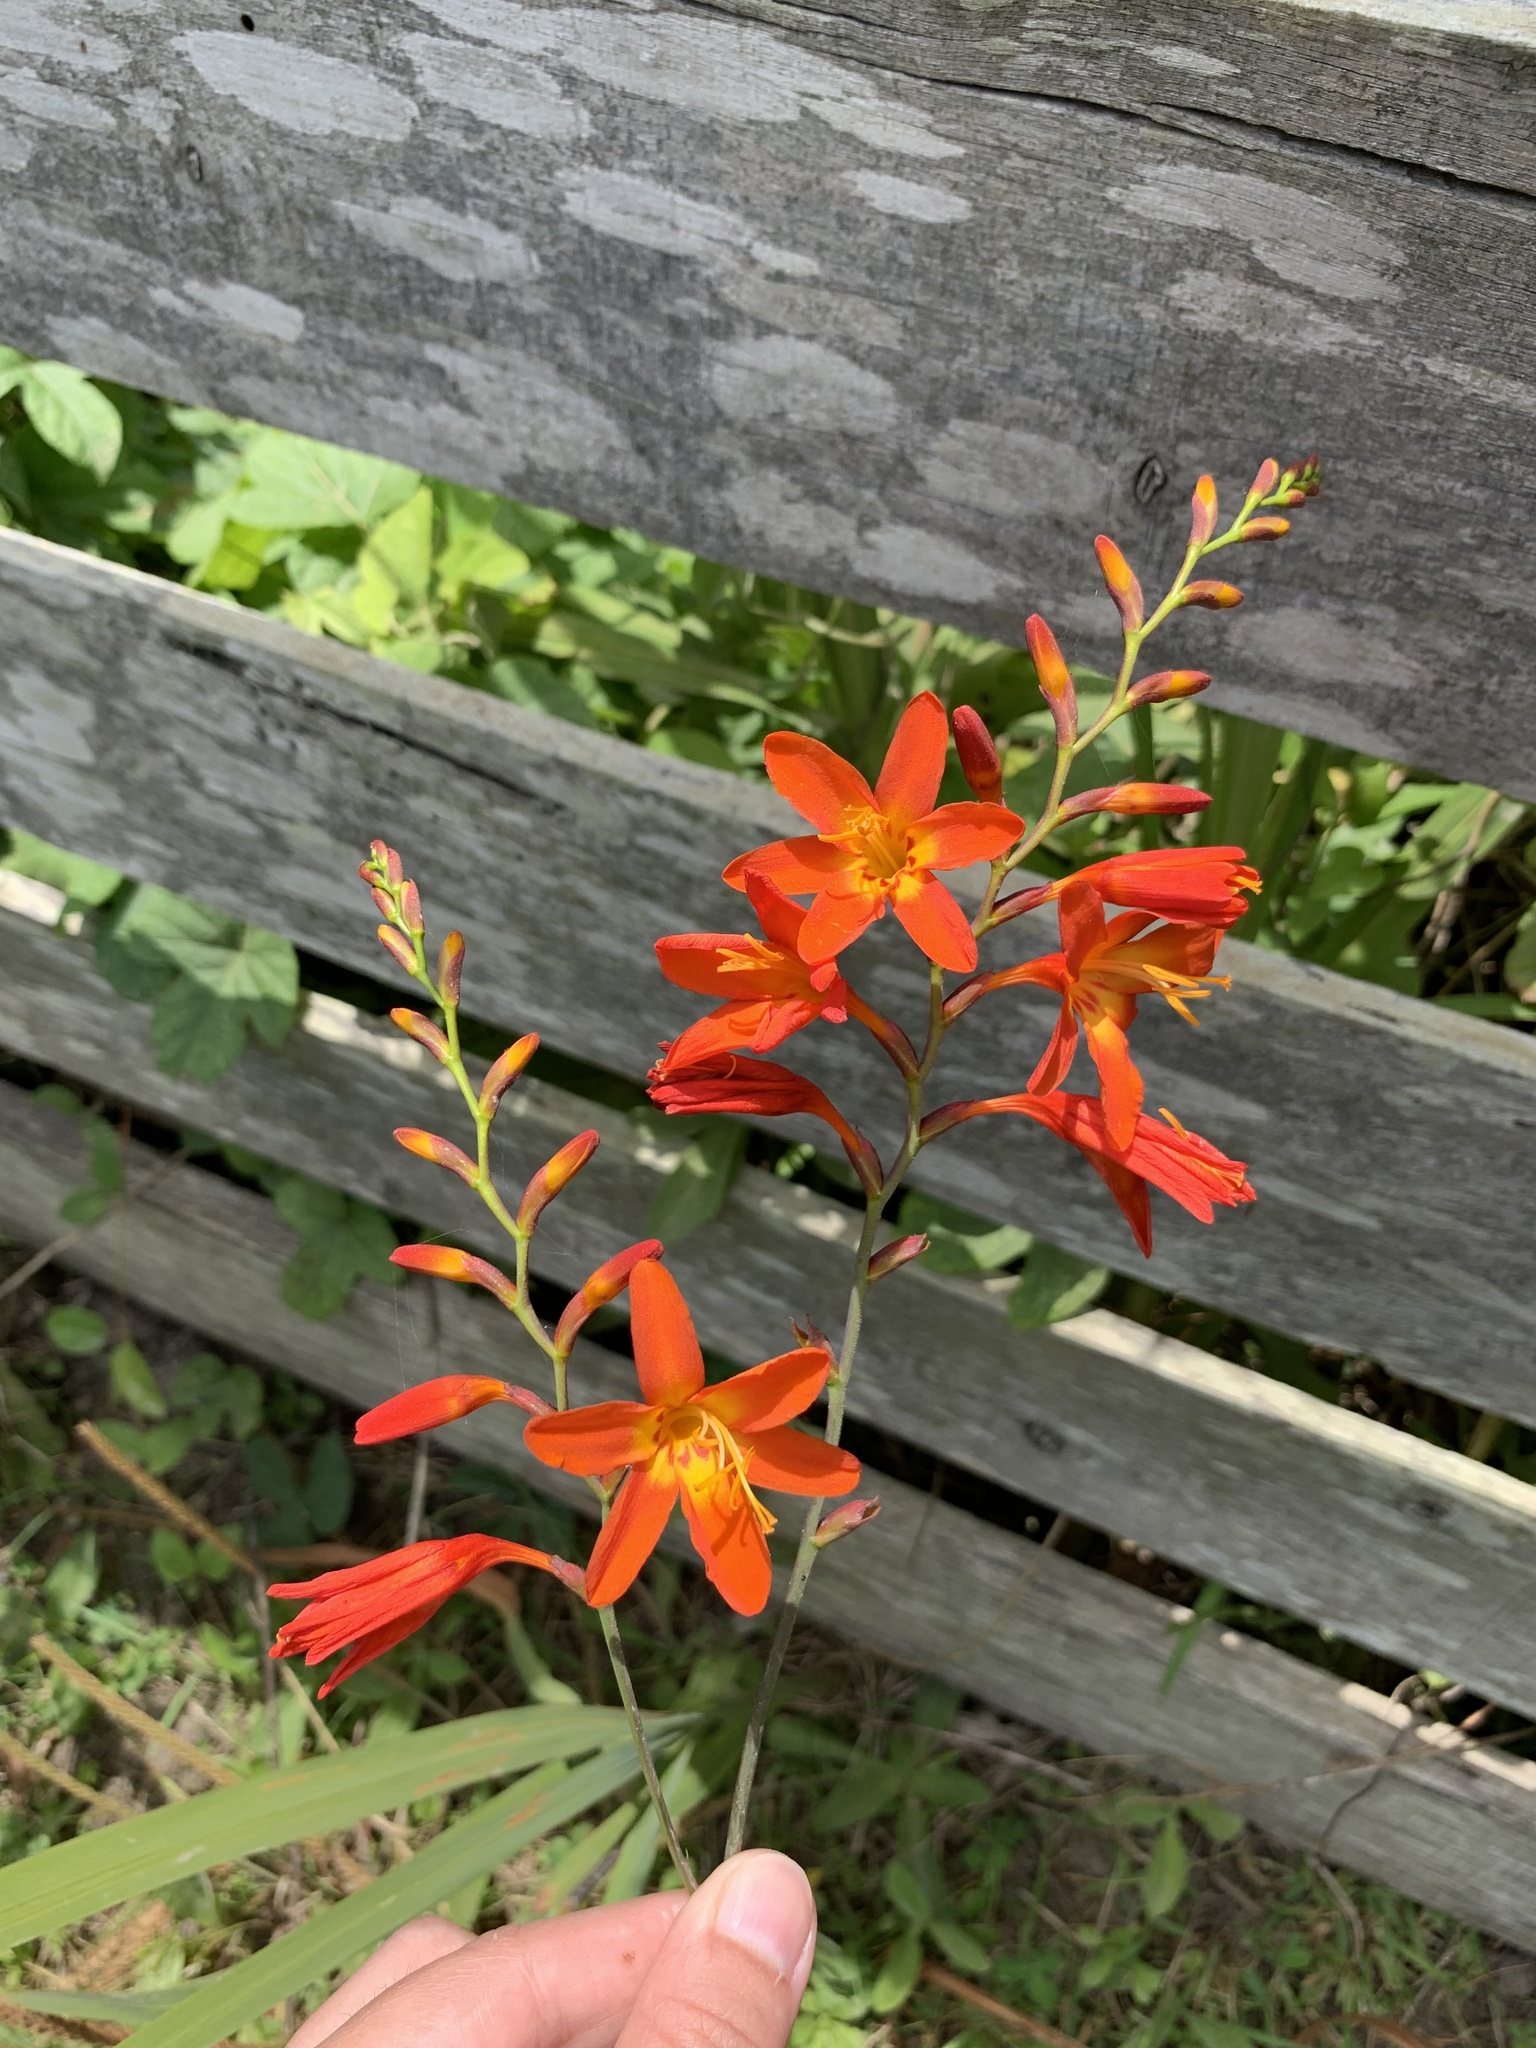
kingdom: Plantae
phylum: Tracheophyta
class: Liliopsida
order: Asparagales
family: Iridaceae
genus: Crocosmia
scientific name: Crocosmia crocosmiiflora
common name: Montbretia
